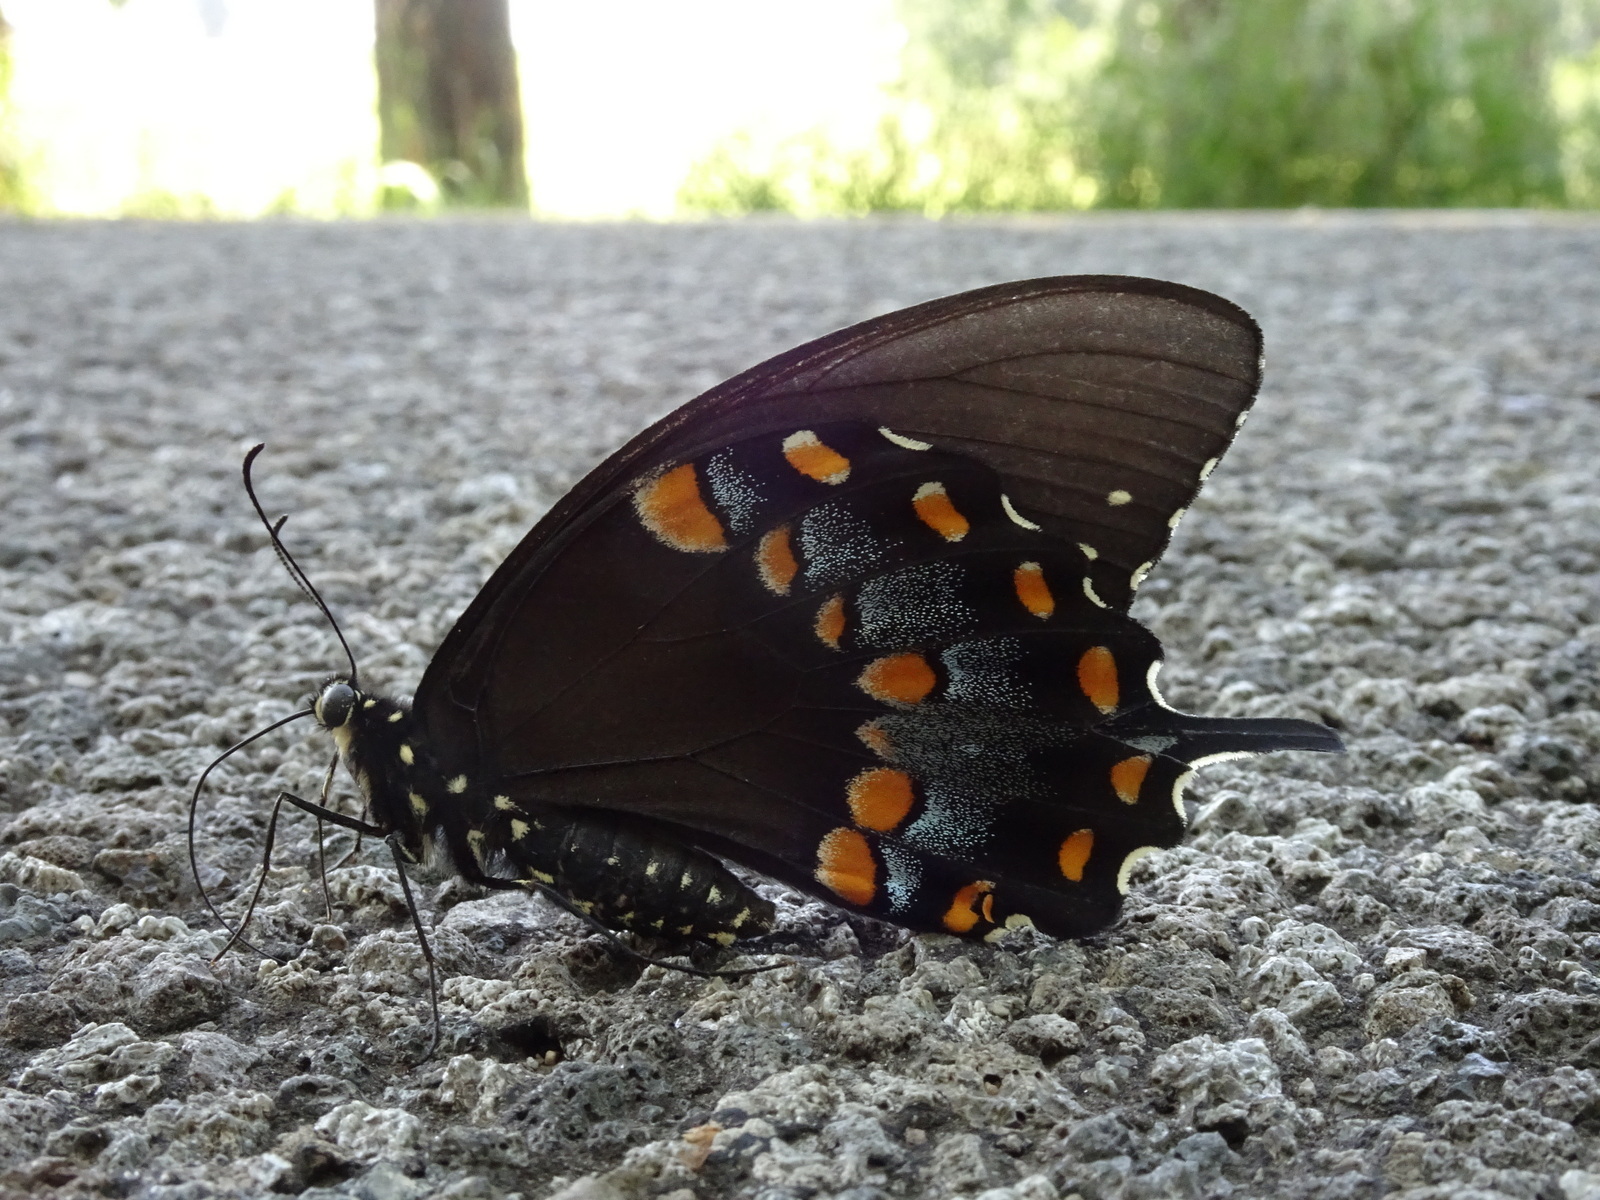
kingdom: Animalia
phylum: Arthropoda
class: Insecta
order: Lepidoptera
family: Papilionidae
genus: Papilio
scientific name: Papilio troilus
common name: Spicebush swallowtail
